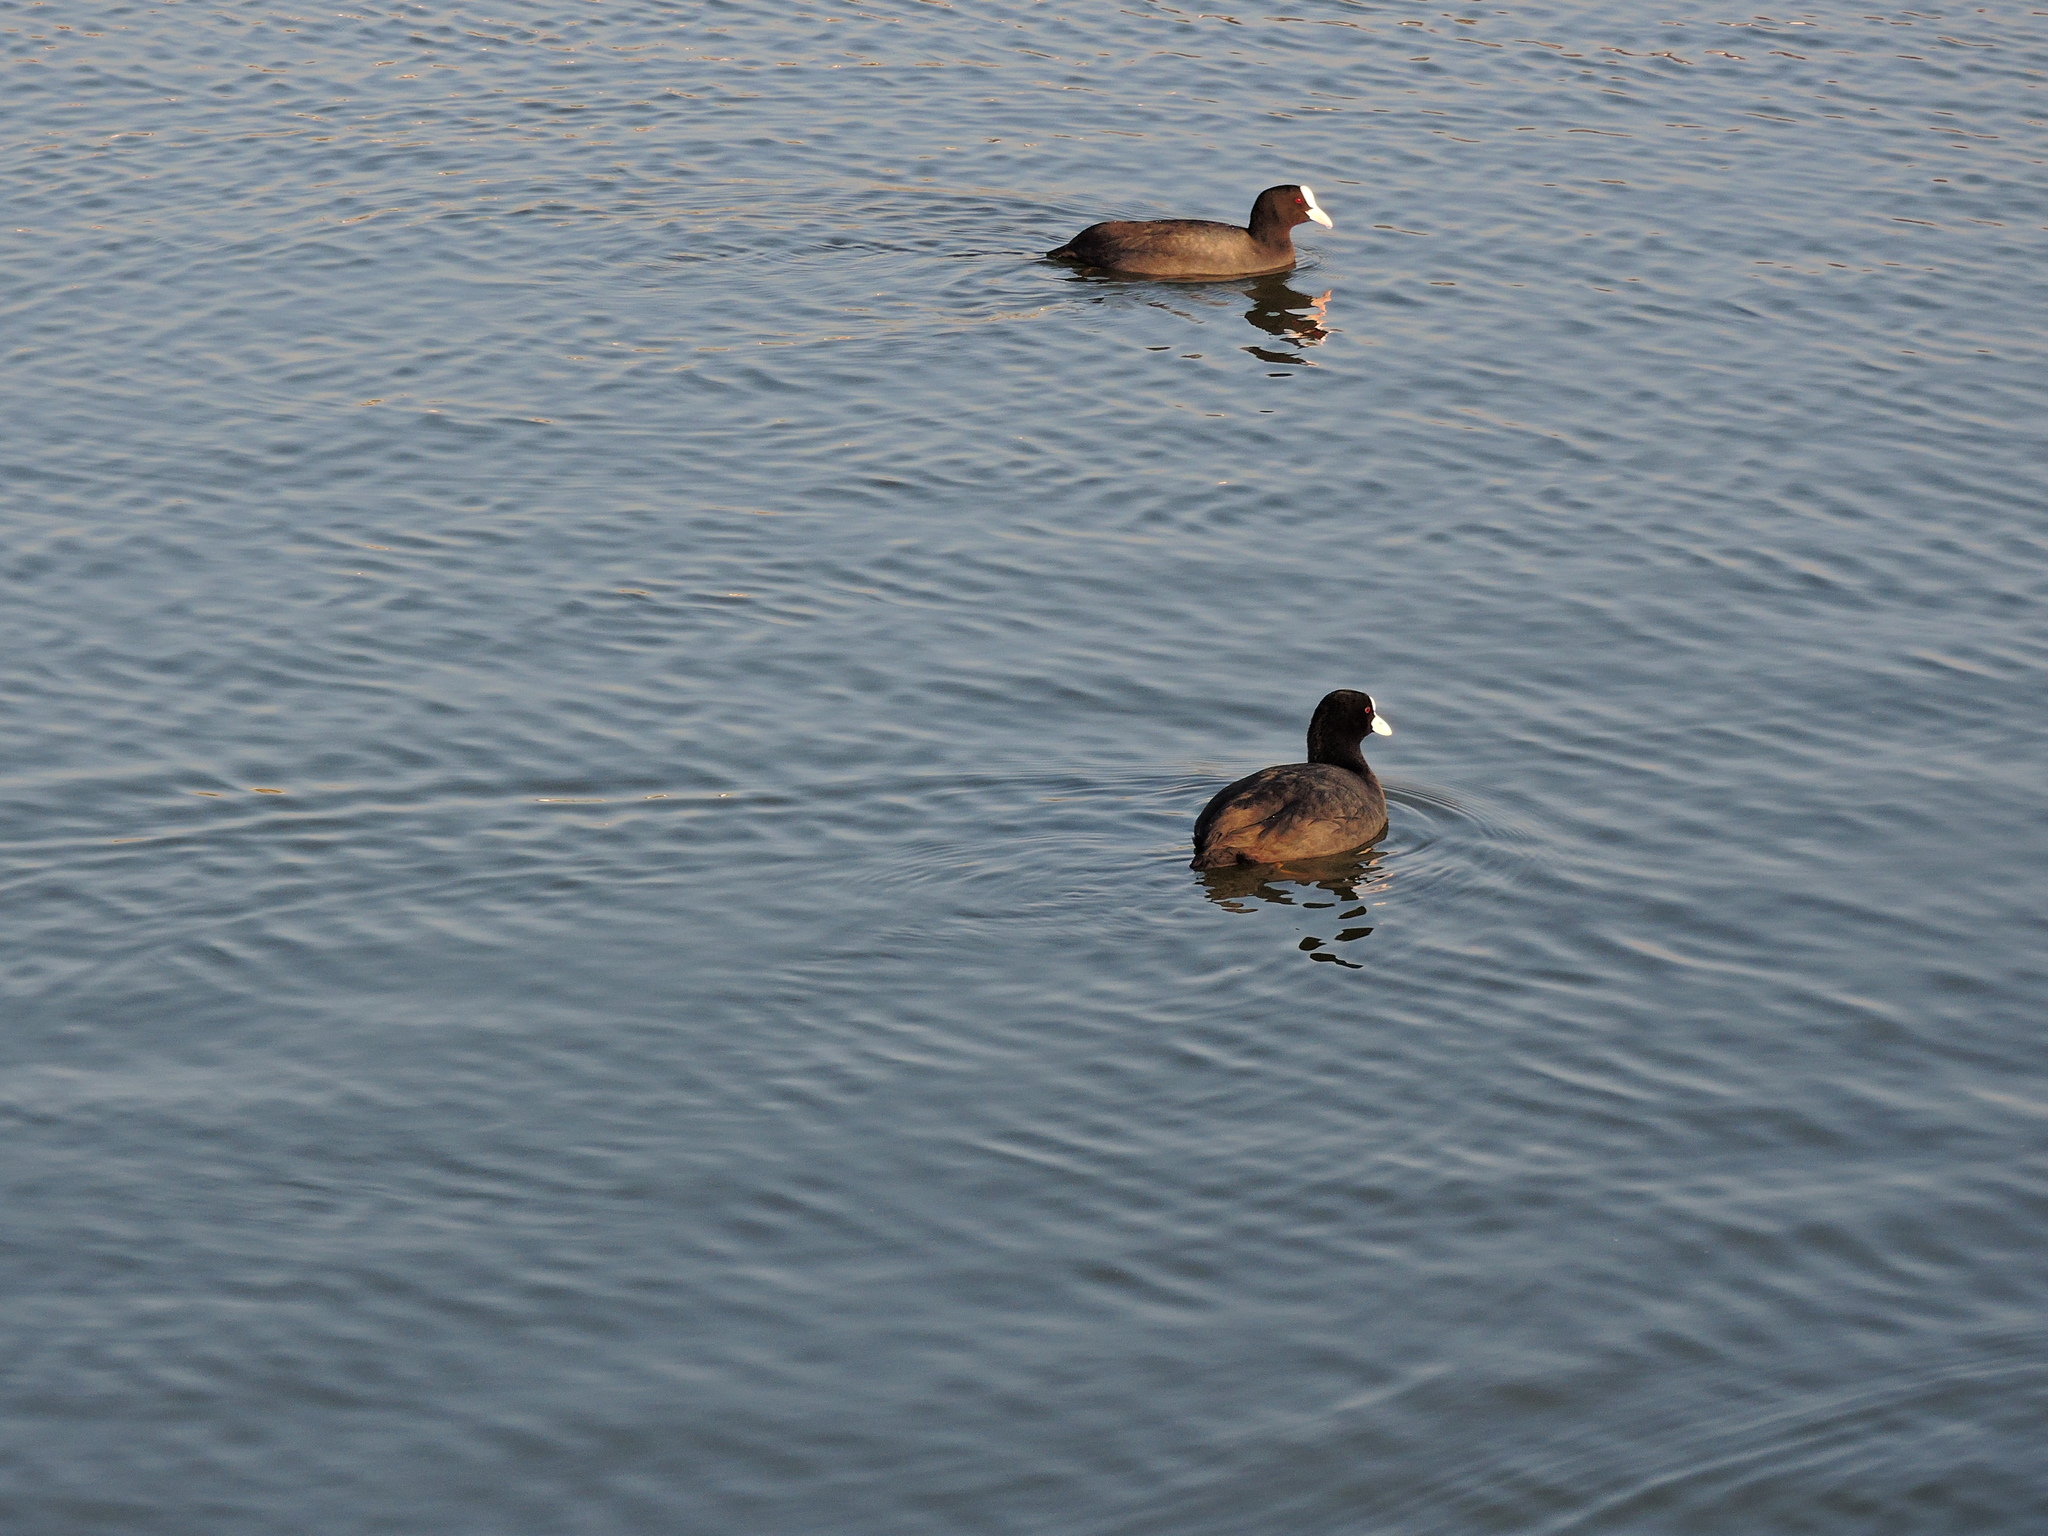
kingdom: Animalia
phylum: Chordata
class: Aves
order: Gruiformes
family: Rallidae
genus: Fulica
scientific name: Fulica atra
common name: Eurasian coot
